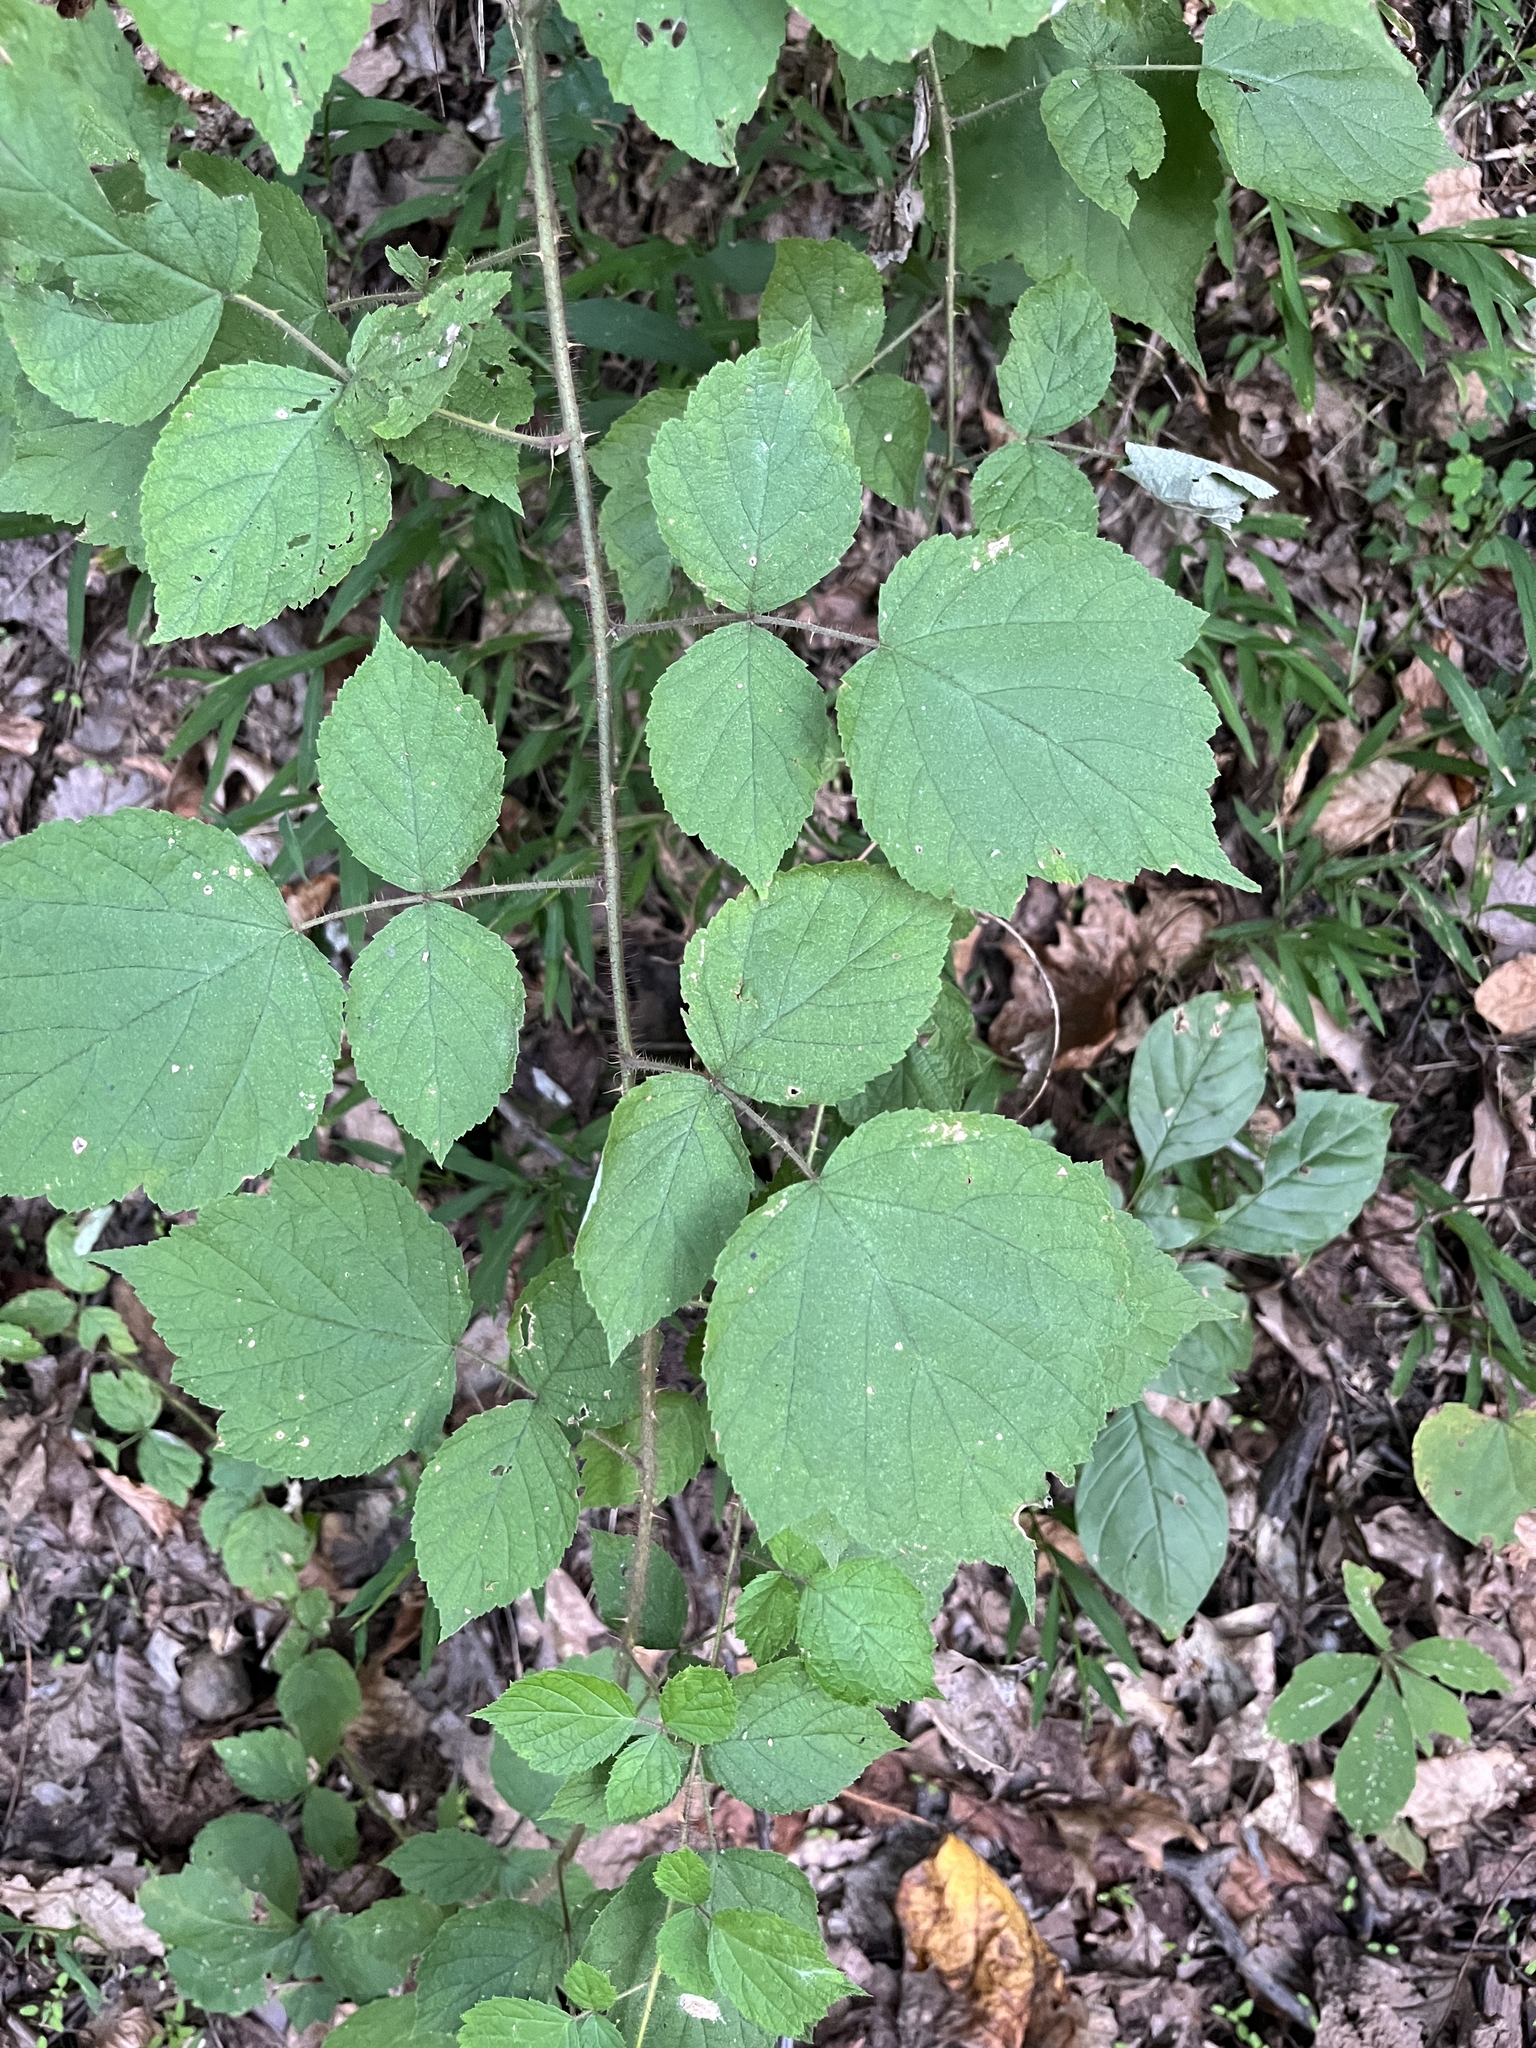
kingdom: Plantae
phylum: Tracheophyta
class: Magnoliopsida
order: Rosales
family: Rosaceae
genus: Rubus
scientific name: Rubus phoenicolasius
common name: Japanese wineberry
